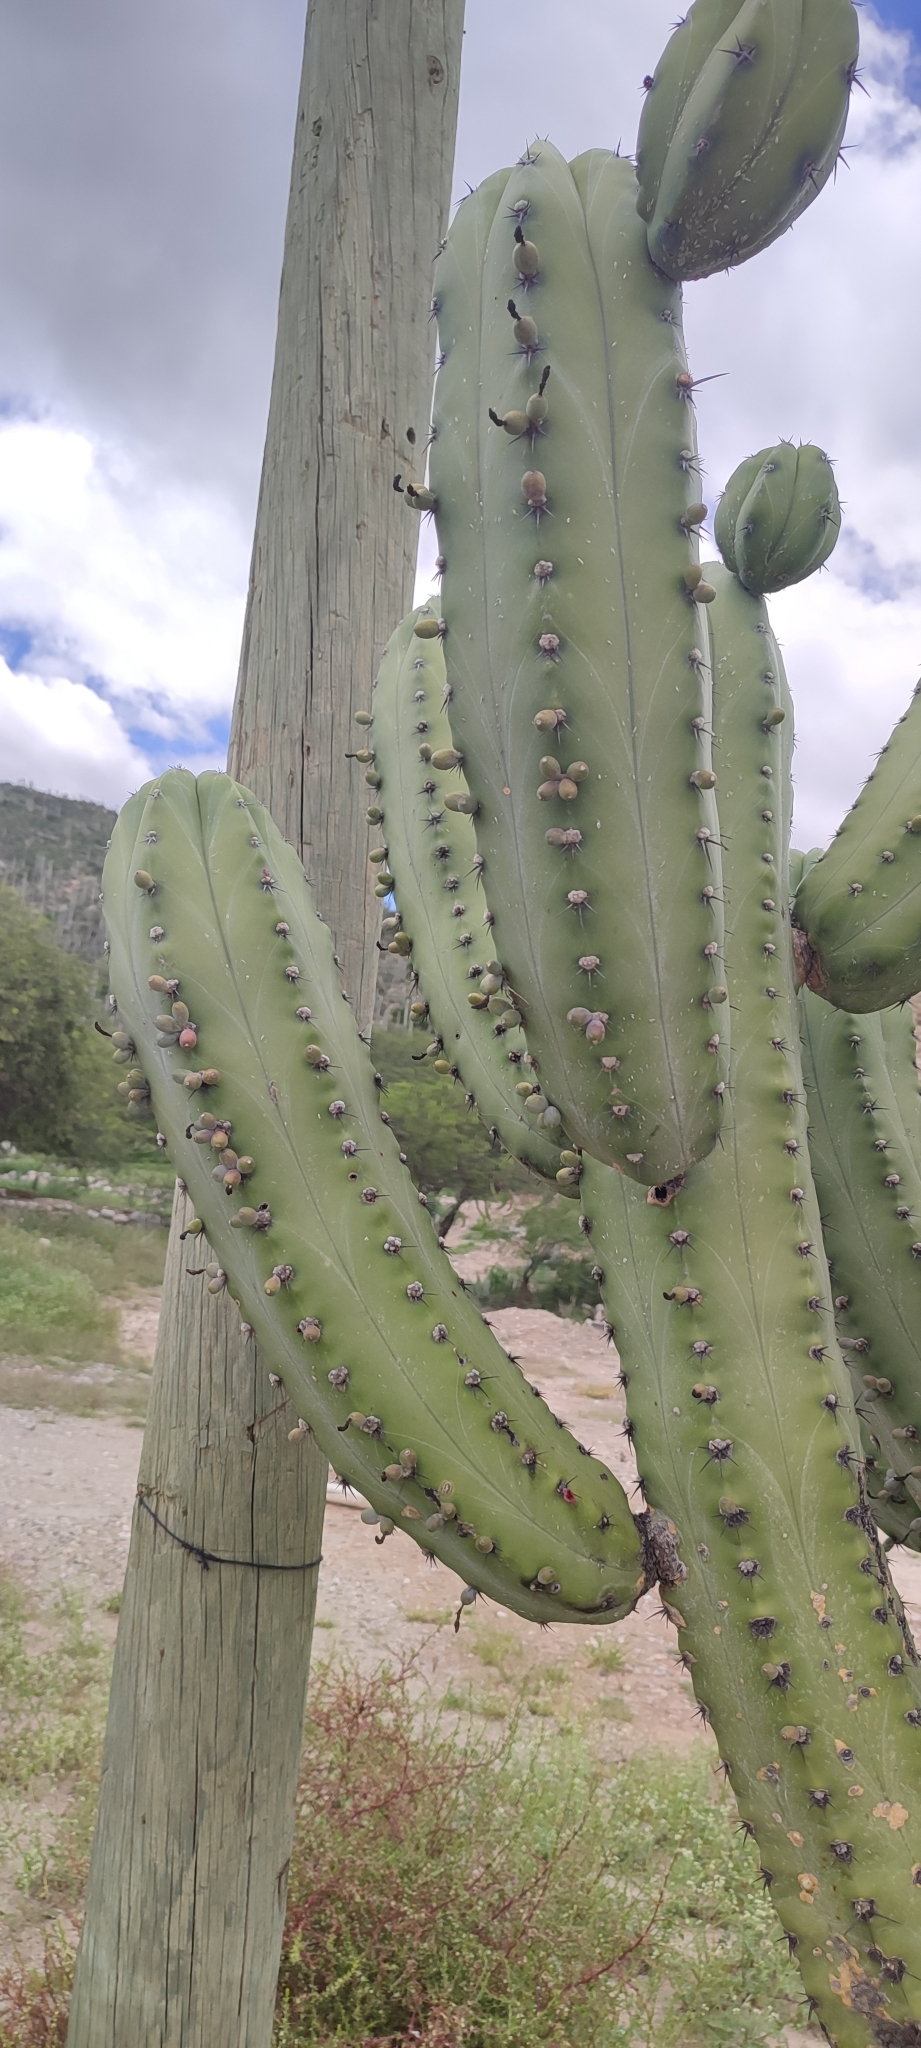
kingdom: Plantae
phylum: Tracheophyta
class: Magnoliopsida
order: Caryophyllales
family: Cactaceae
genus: Myrtillocactus
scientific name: Myrtillocactus geometrizans
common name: Bilberry cactus
